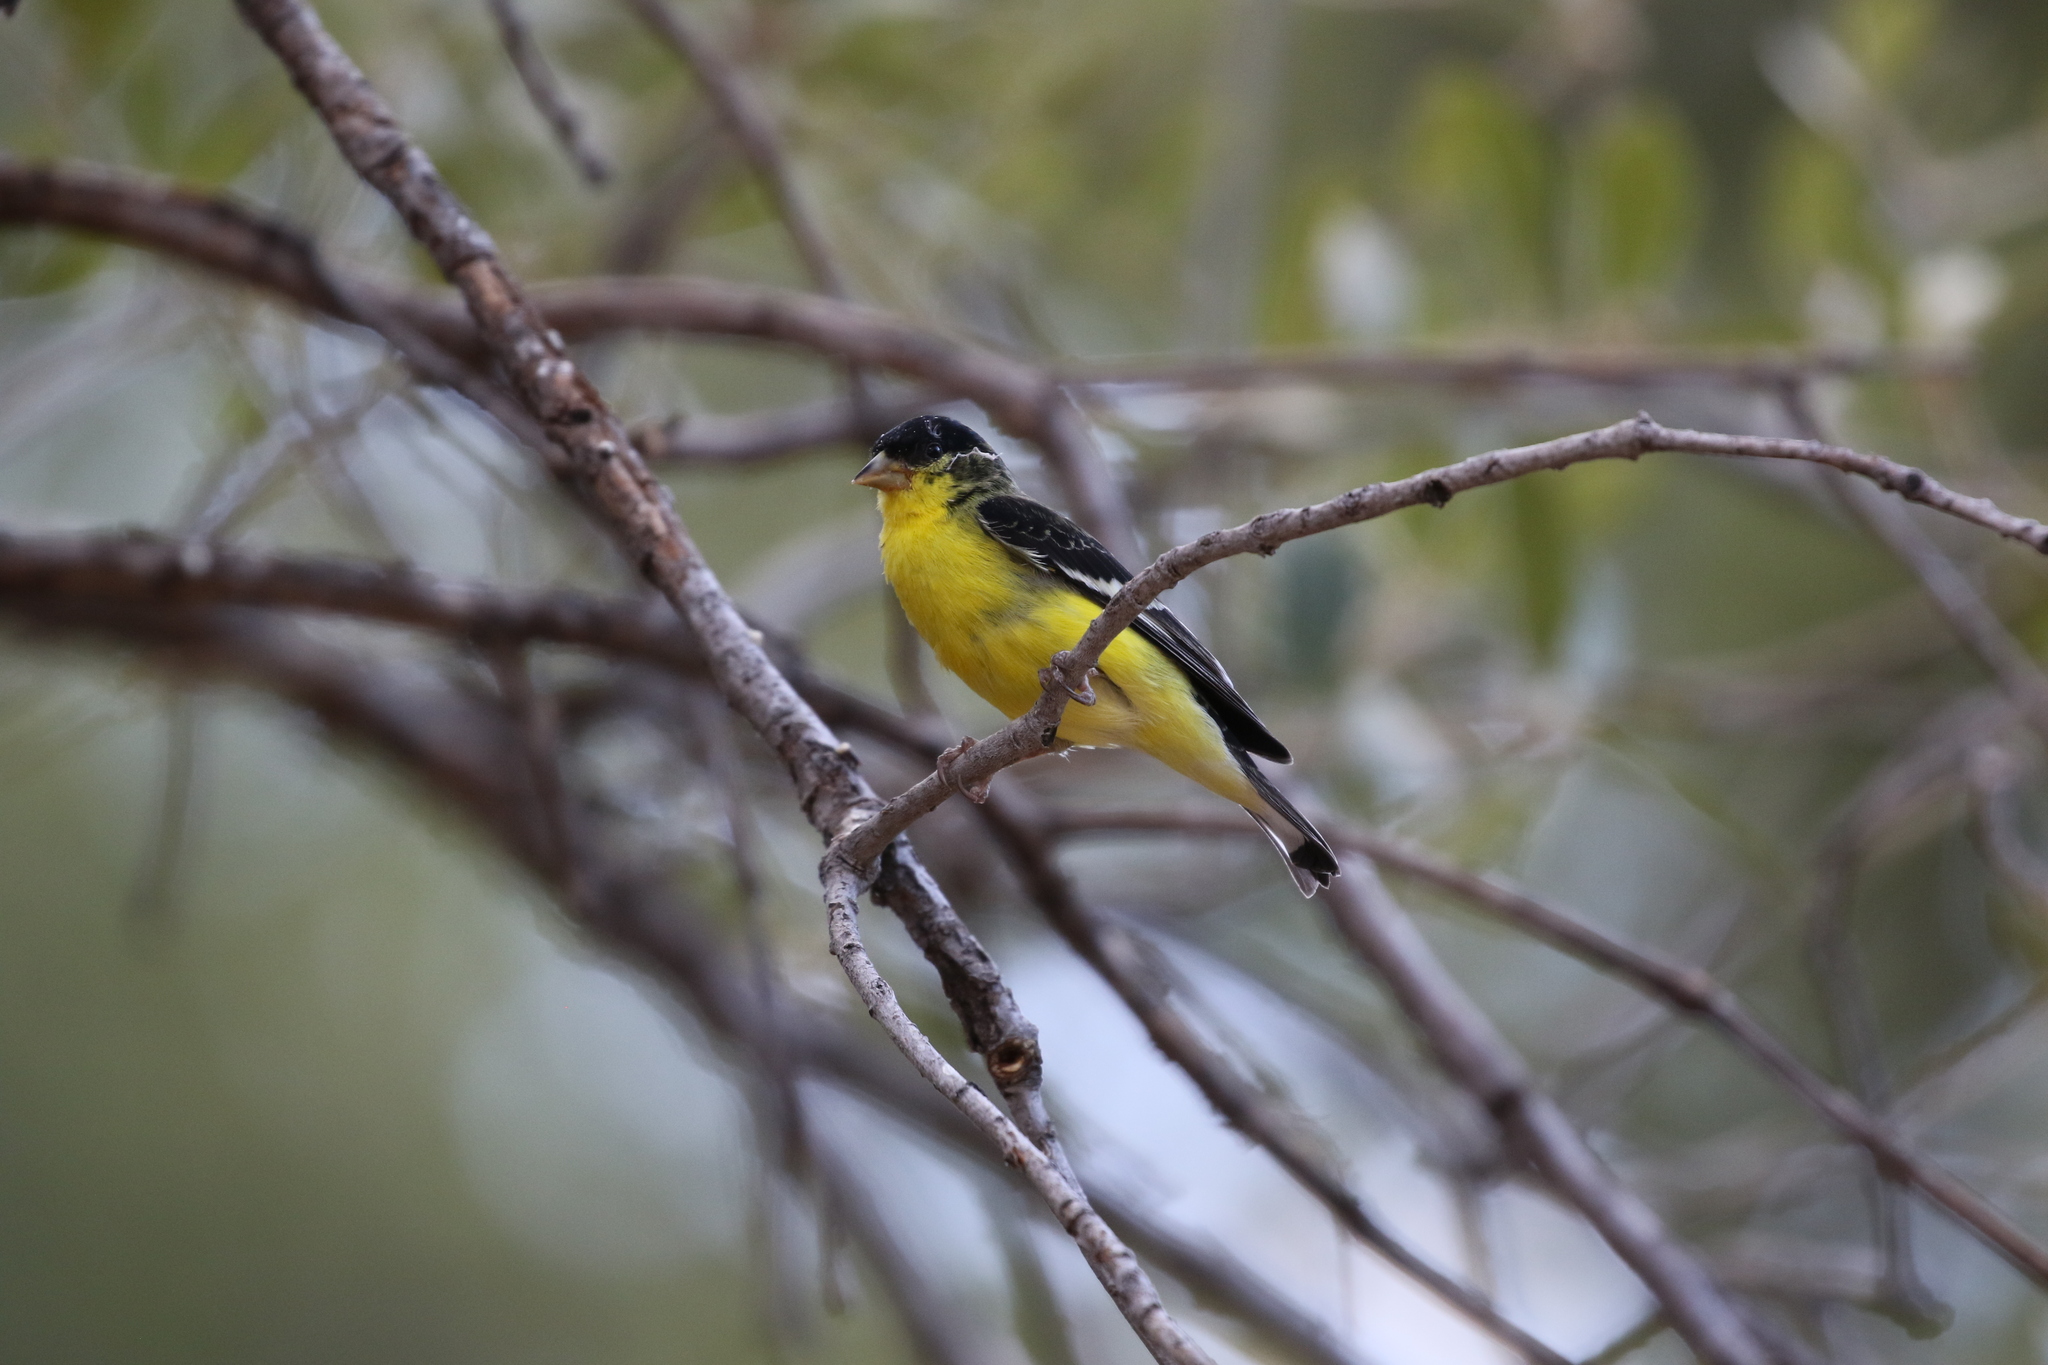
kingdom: Animalia
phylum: Chordata
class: Aves
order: Passeriformes
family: Fringillidae
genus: Spinus
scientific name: Spinus psaltria
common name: Lesser goldfinch
